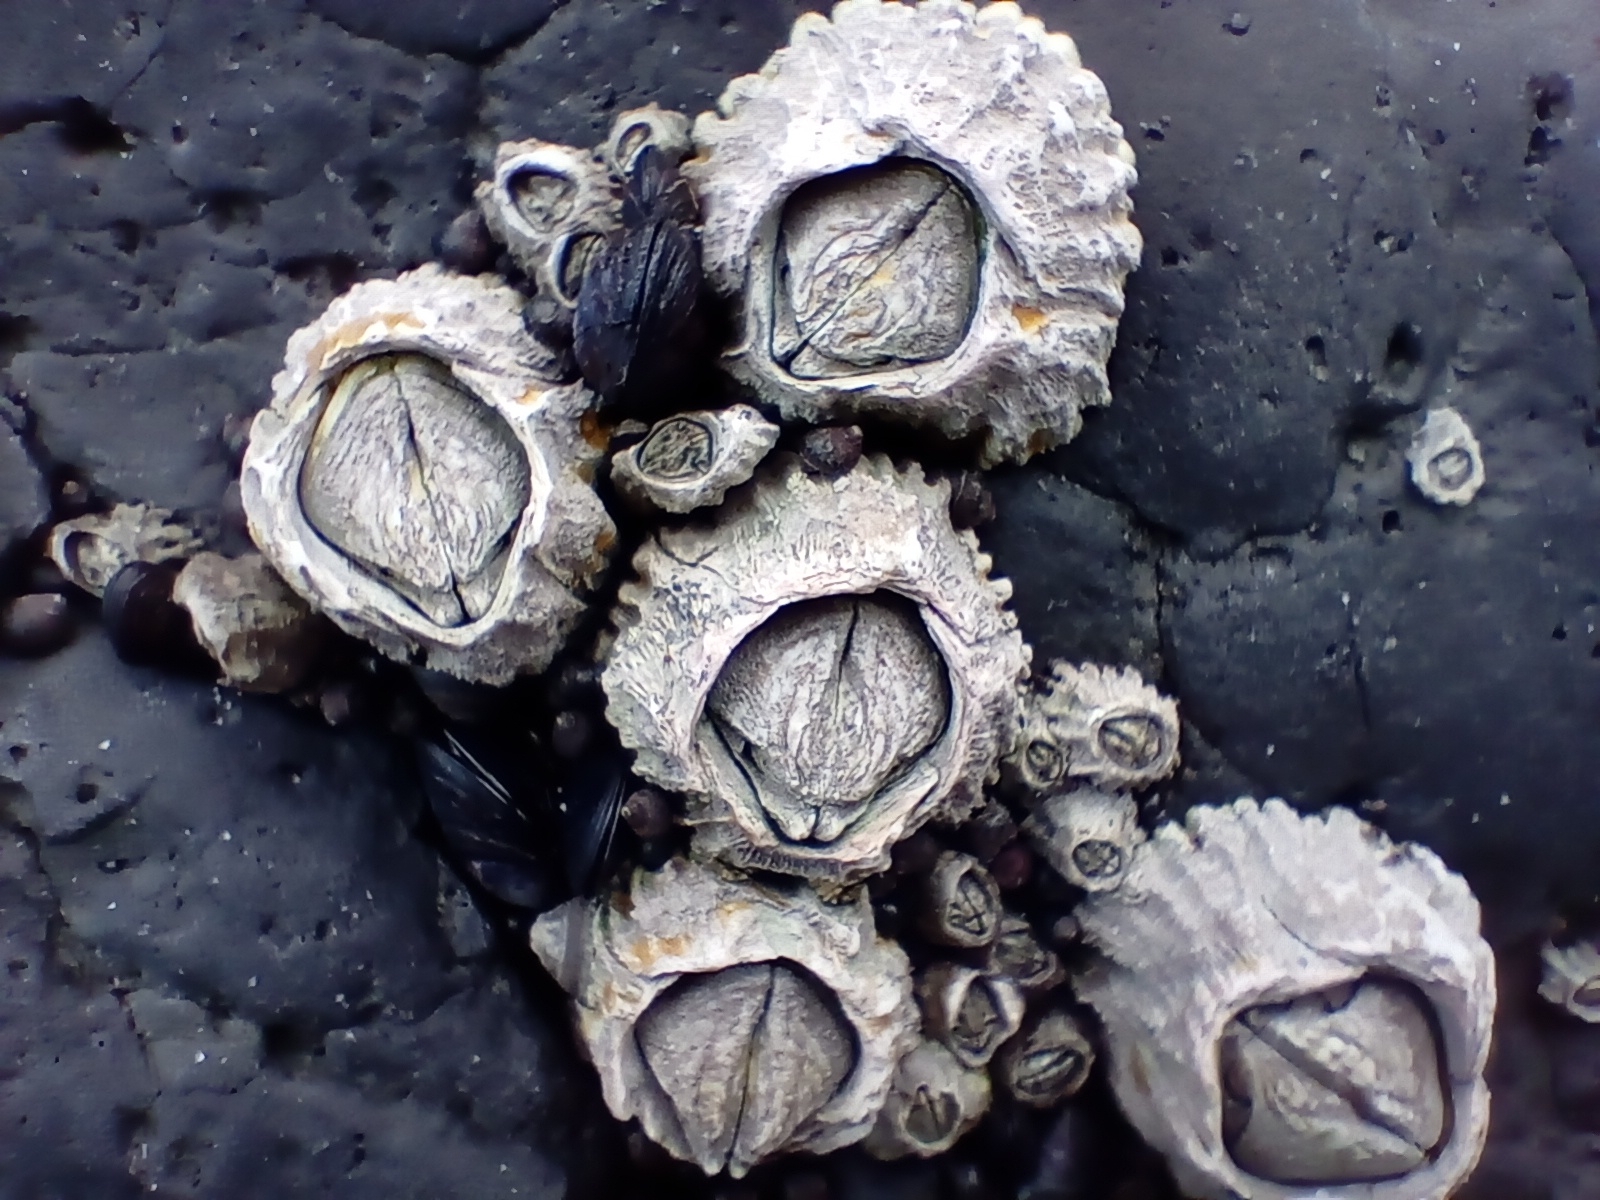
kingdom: Animalia
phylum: Arthropoda
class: Maxillopoda
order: Sessilia
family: Tetraclitidae
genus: Epopella
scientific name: Epopella plicata
